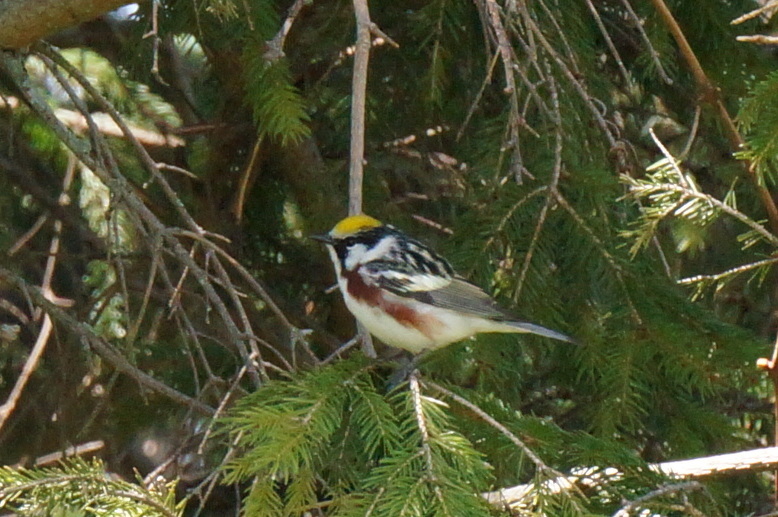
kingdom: Animalia
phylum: Chordata
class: Aves
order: Passeriformes
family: Parulidae
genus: Setophaga
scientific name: Setophaga pensylvanica
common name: Chestnut-sided warbler
